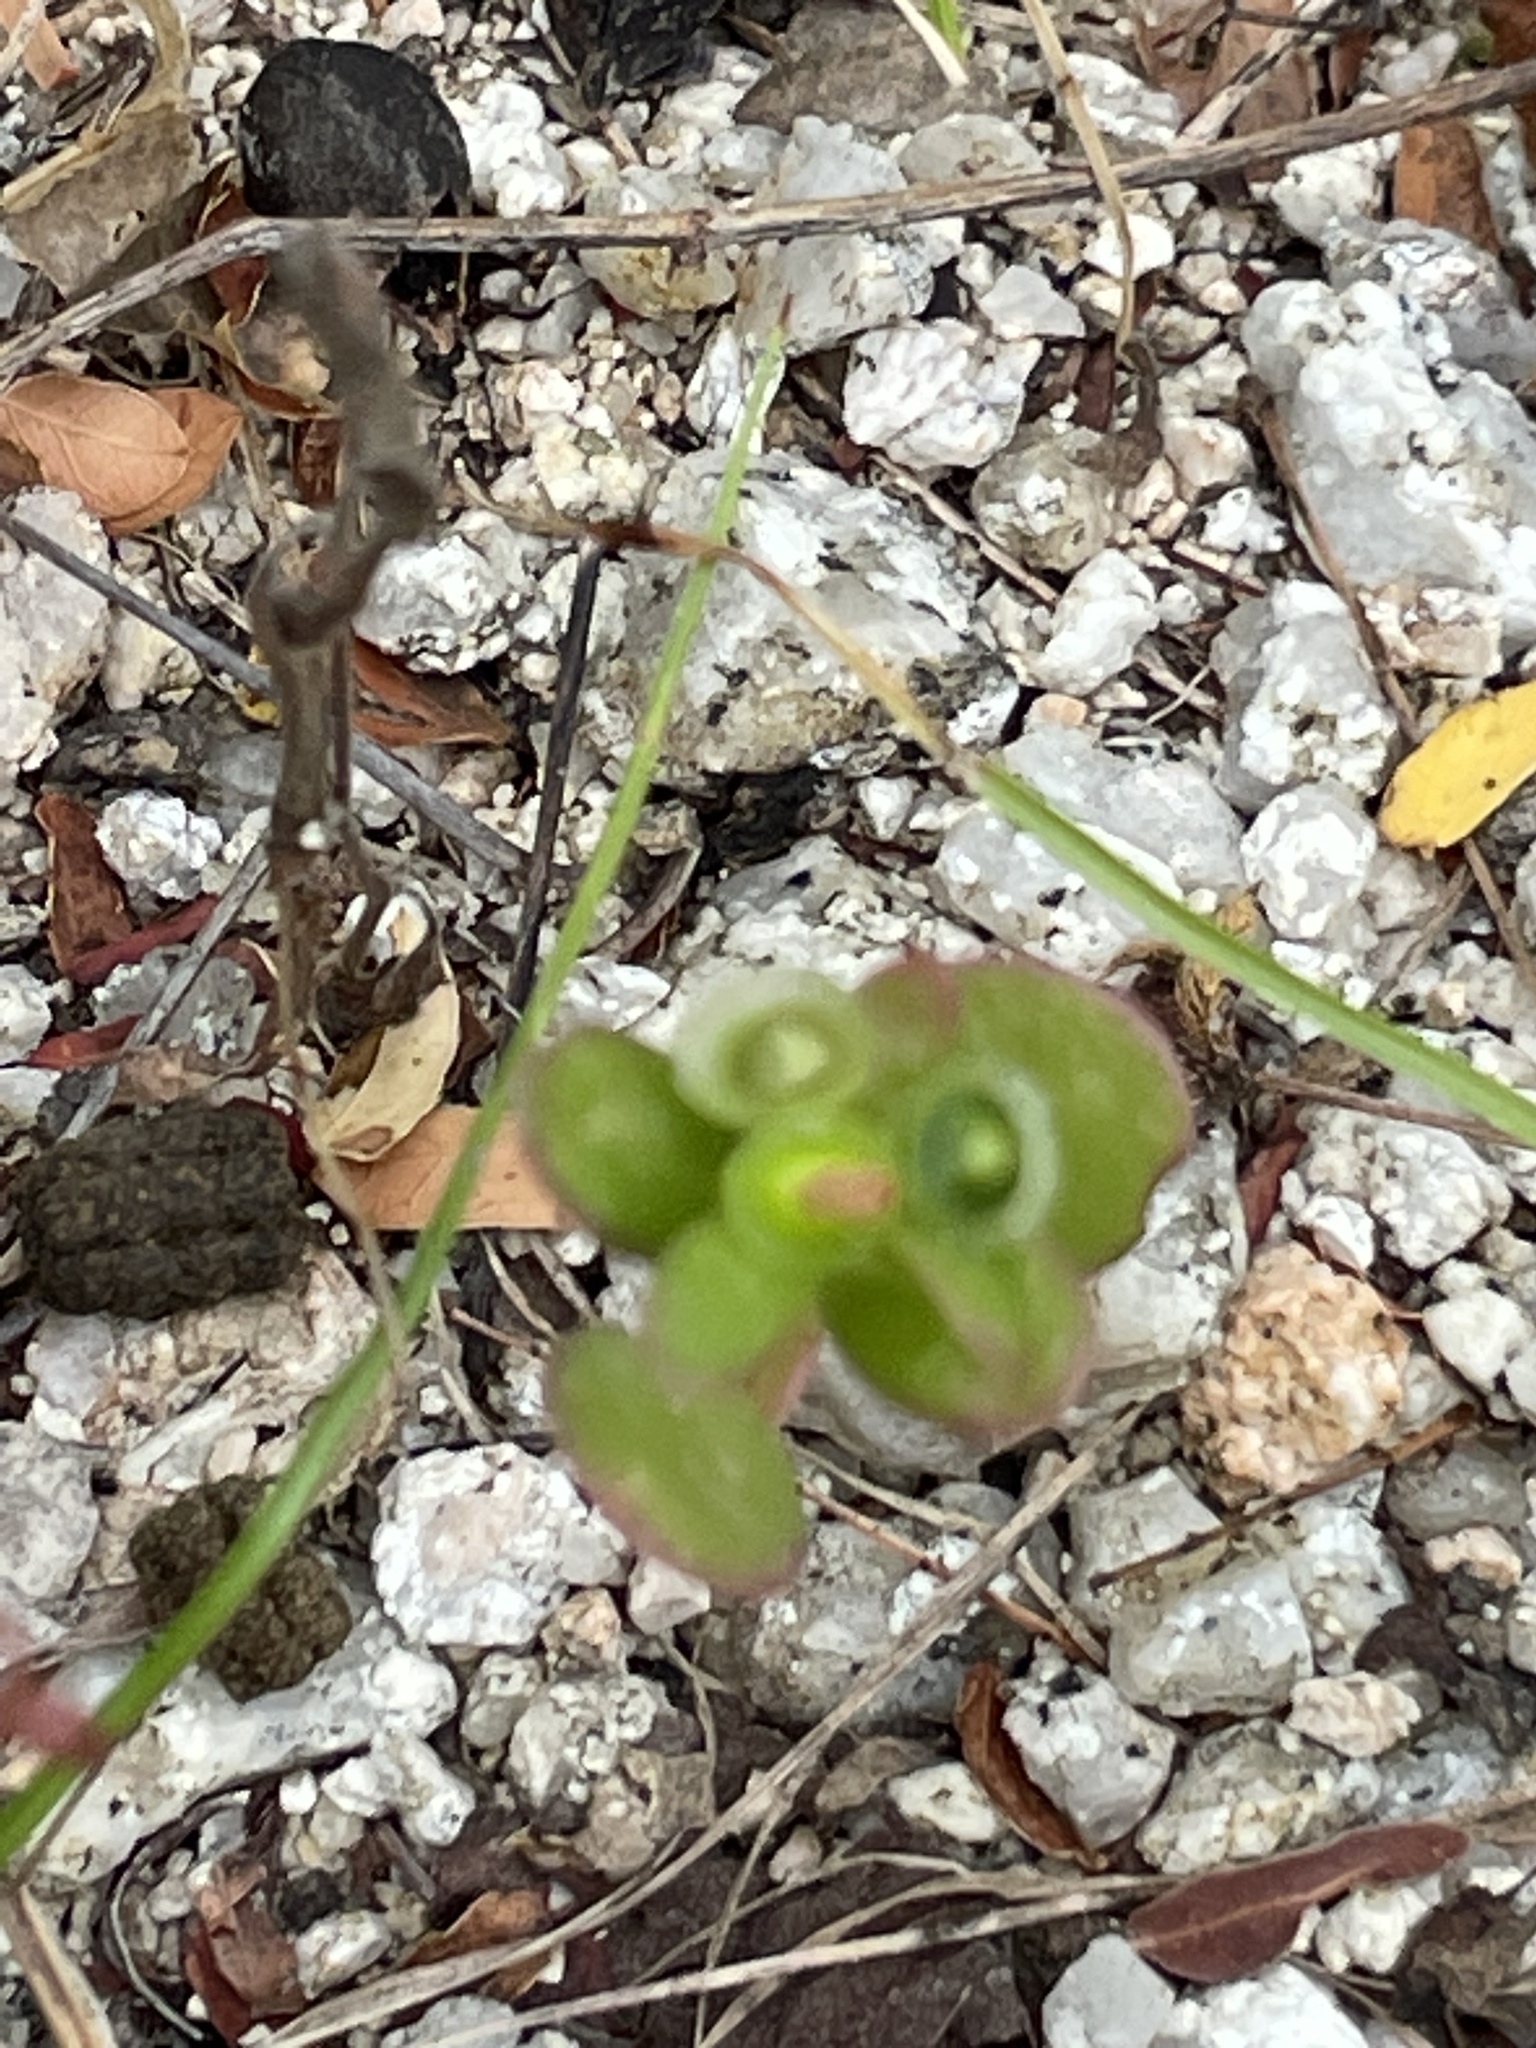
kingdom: Plantae
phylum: Tracheophyta
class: Magnoliopsida
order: Caryophyllales
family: Portulacaceae
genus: Portulaca
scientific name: Portulaca umbraticola
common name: Wingpod purslane
